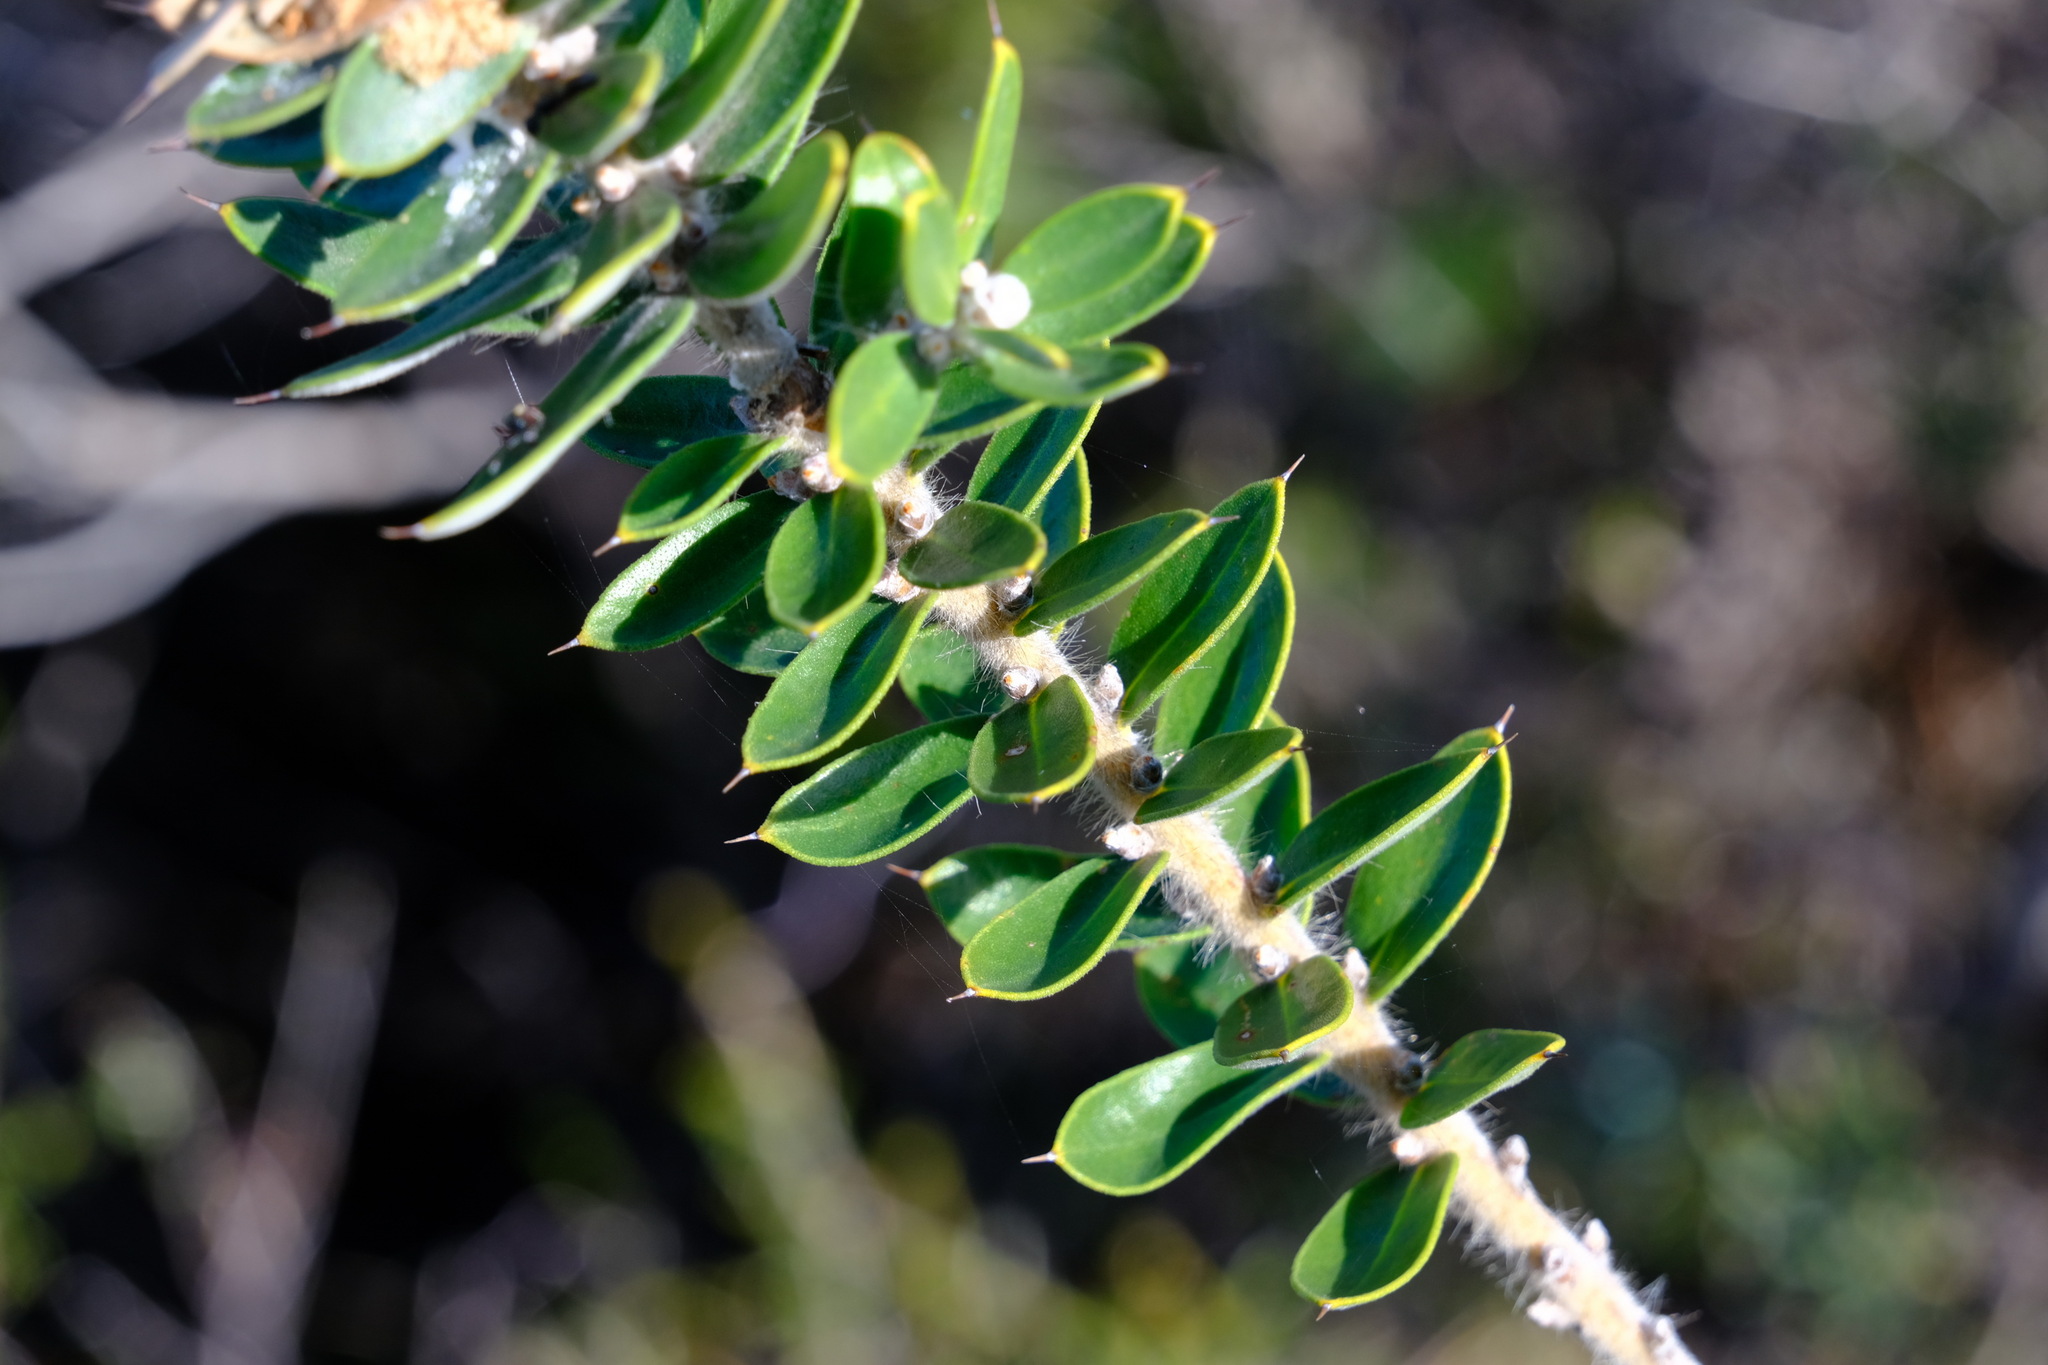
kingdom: Plantae
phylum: Tracheophyta
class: Magnoliopsida
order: Proteales
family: Proteaceae
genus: Hakea
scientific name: Hakea ruscifolia
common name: Candle hakea
